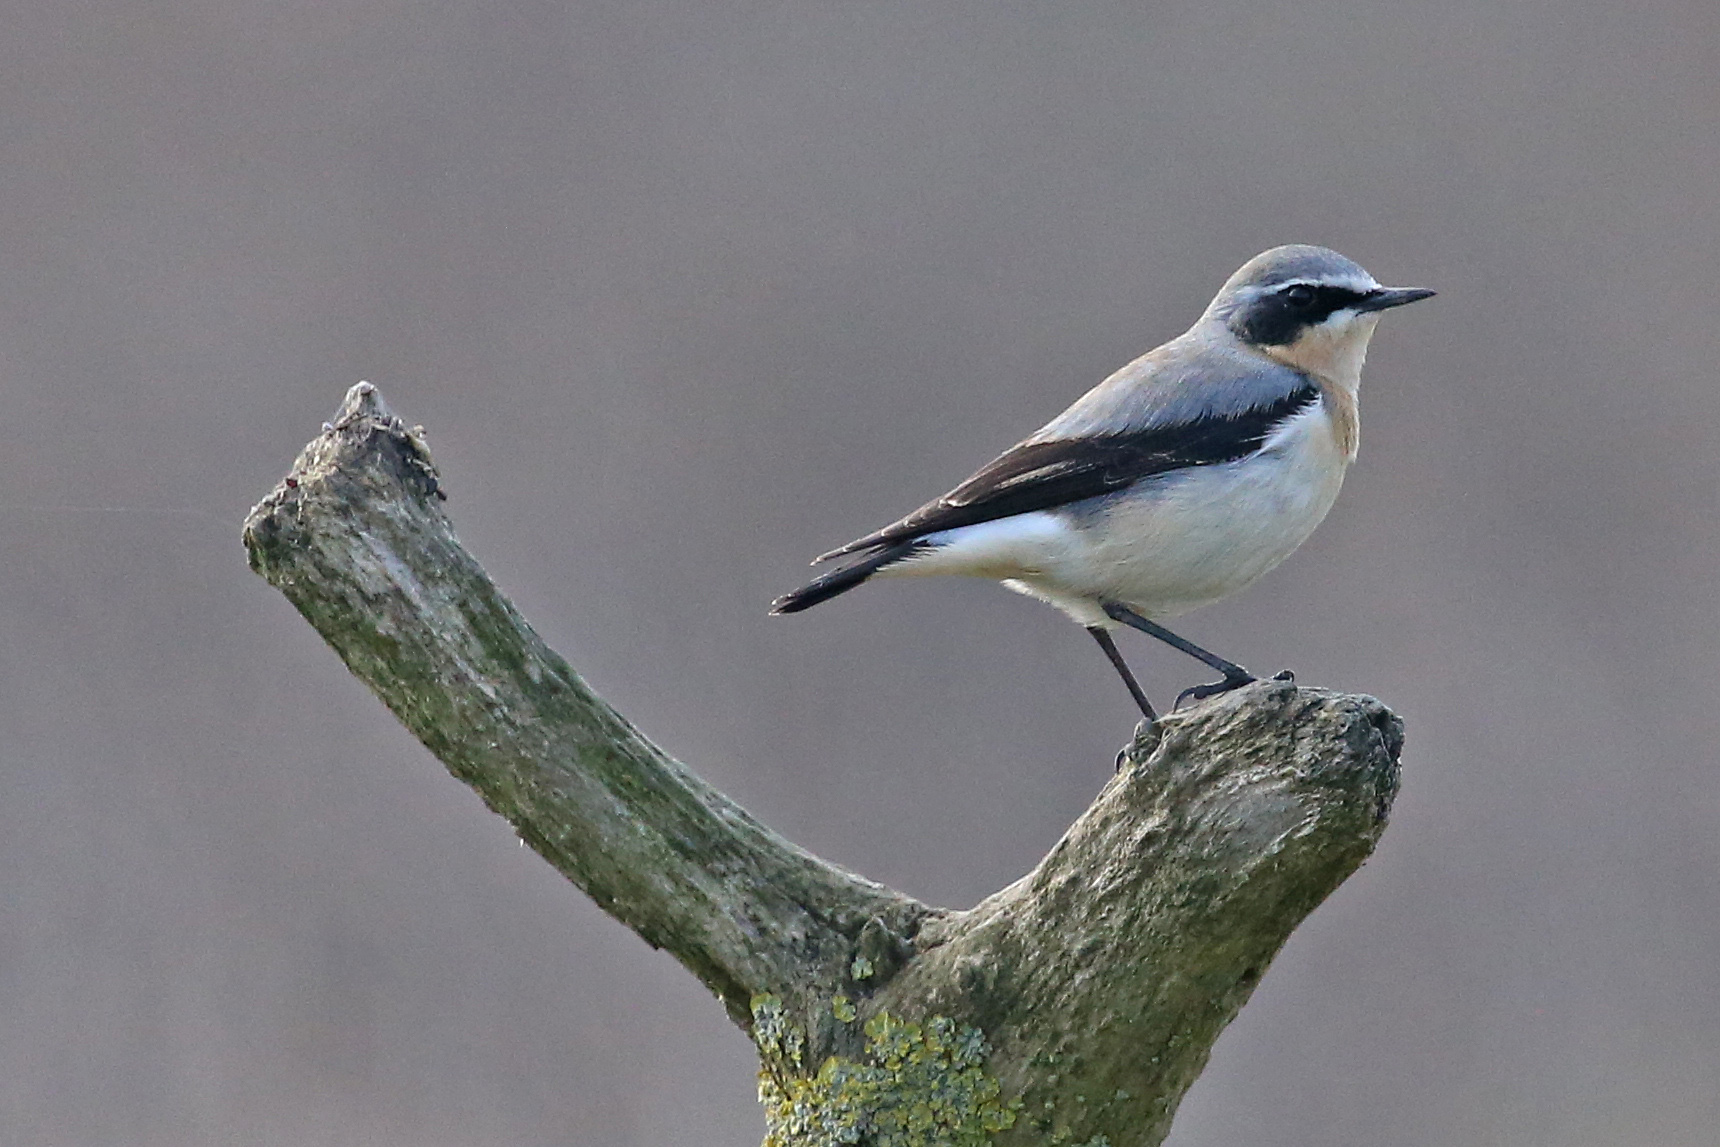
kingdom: Animalia
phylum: Chordata
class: Aves
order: Passeriformes
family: Muscicapidae
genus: Oenanthe
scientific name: Oenanthe oenanthe
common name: Northern wheatear
